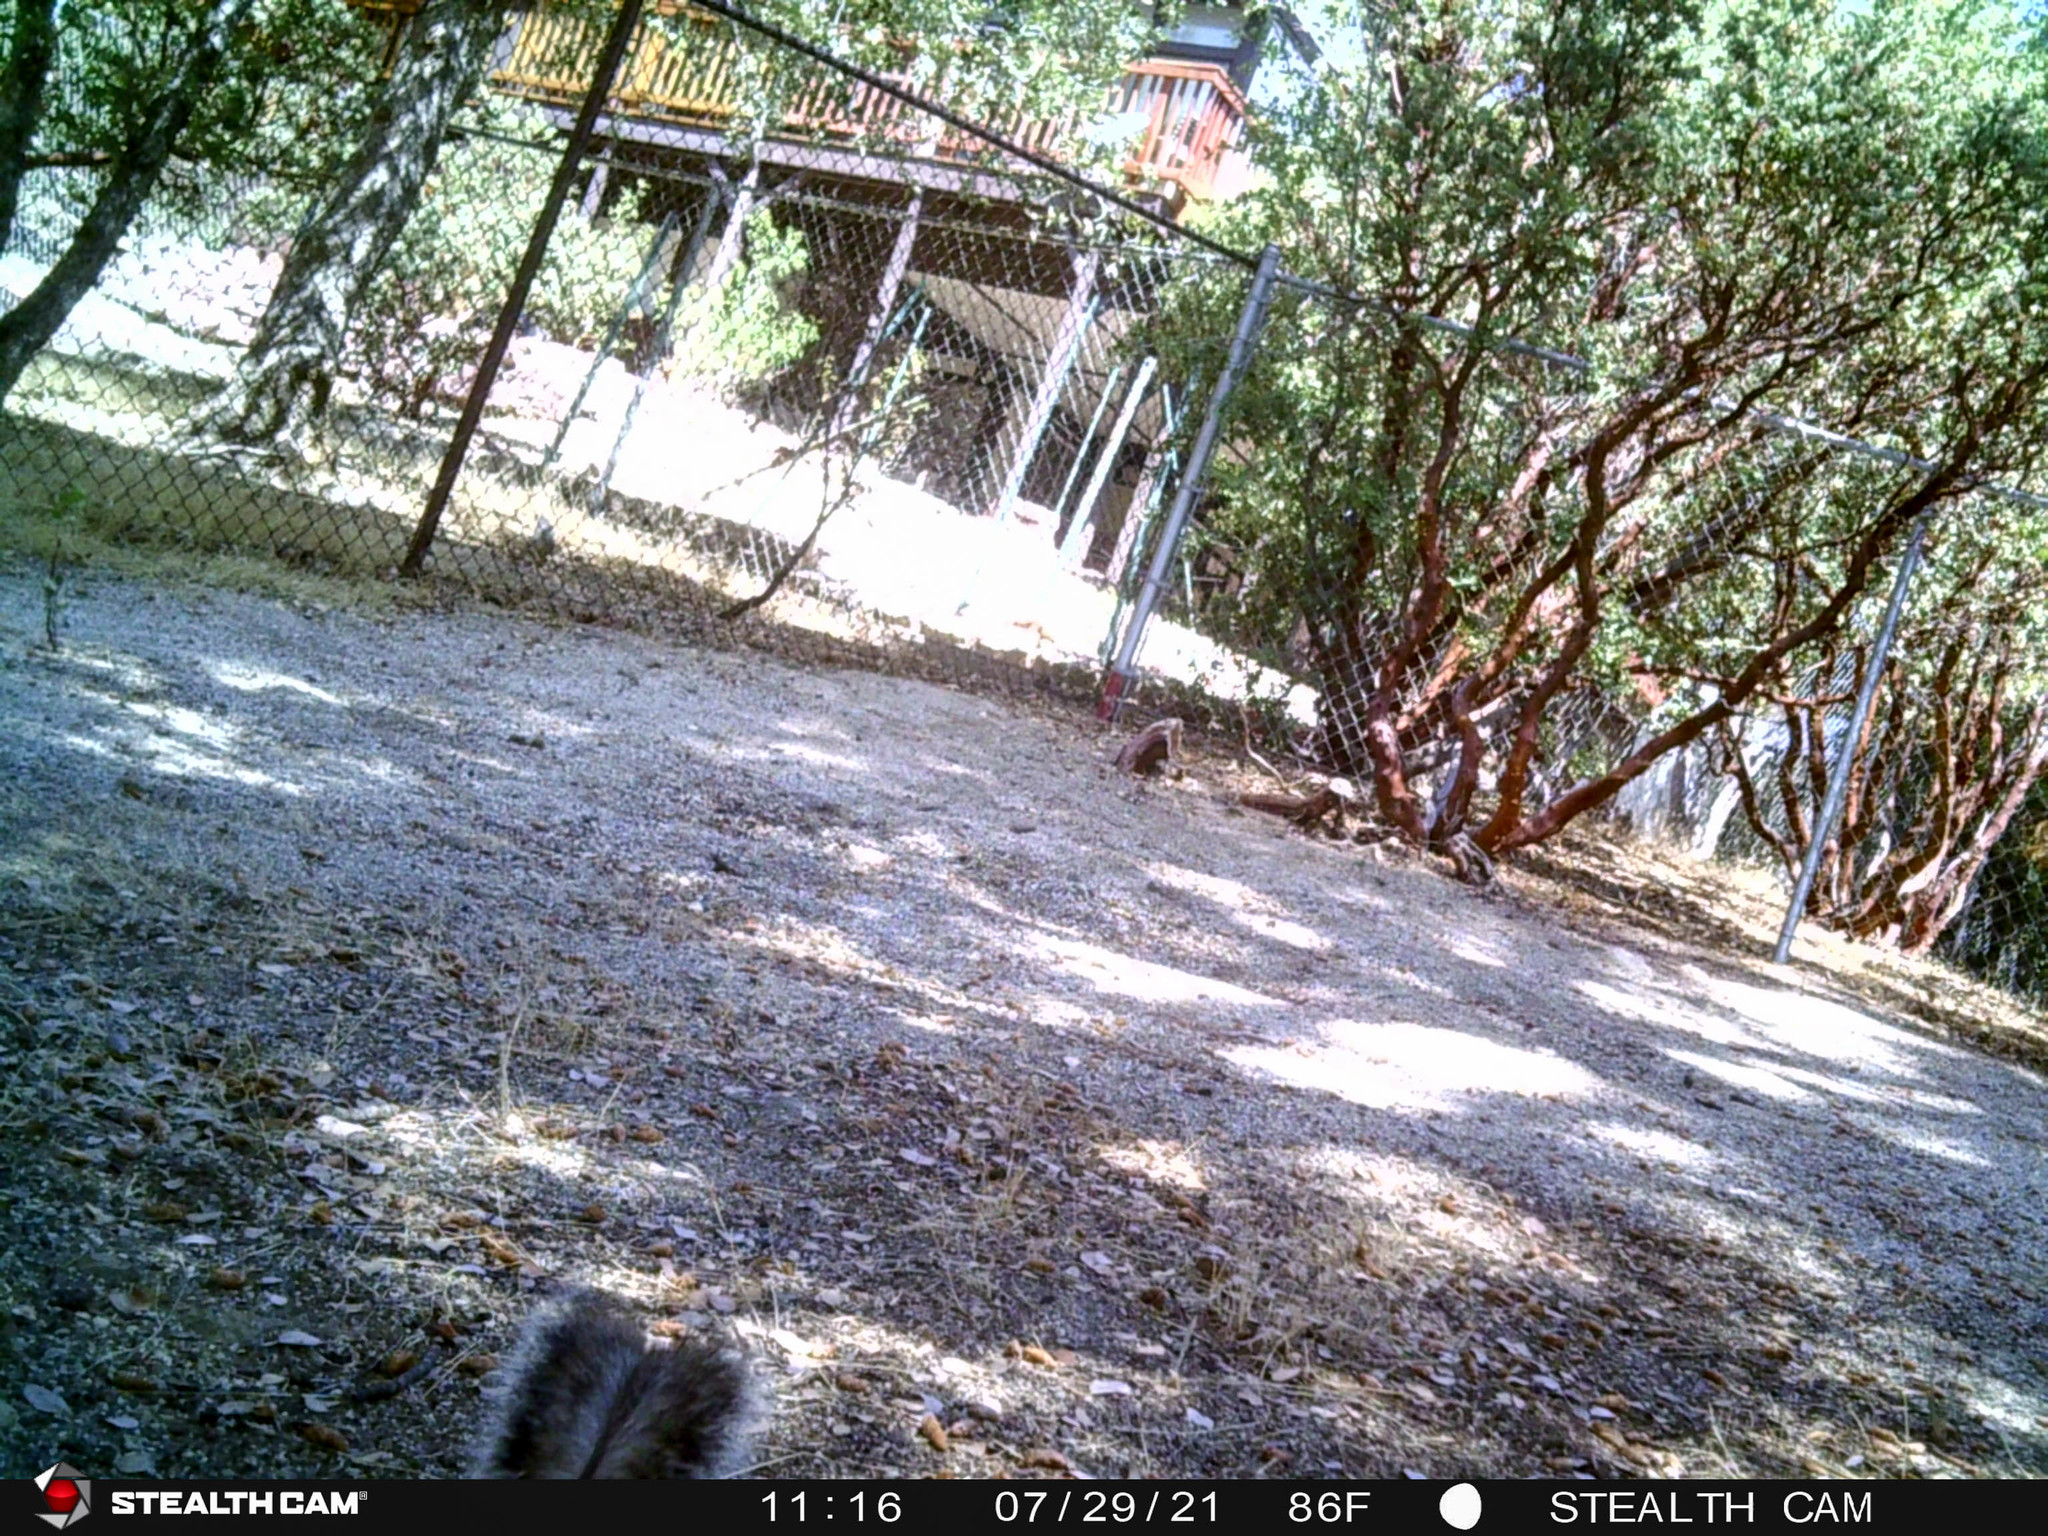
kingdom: Animalia
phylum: Chordata
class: Mammalia
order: Rodentia
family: Sciuridae
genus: Sciurus
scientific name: Sciurus griseus
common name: Western gray squirrel
